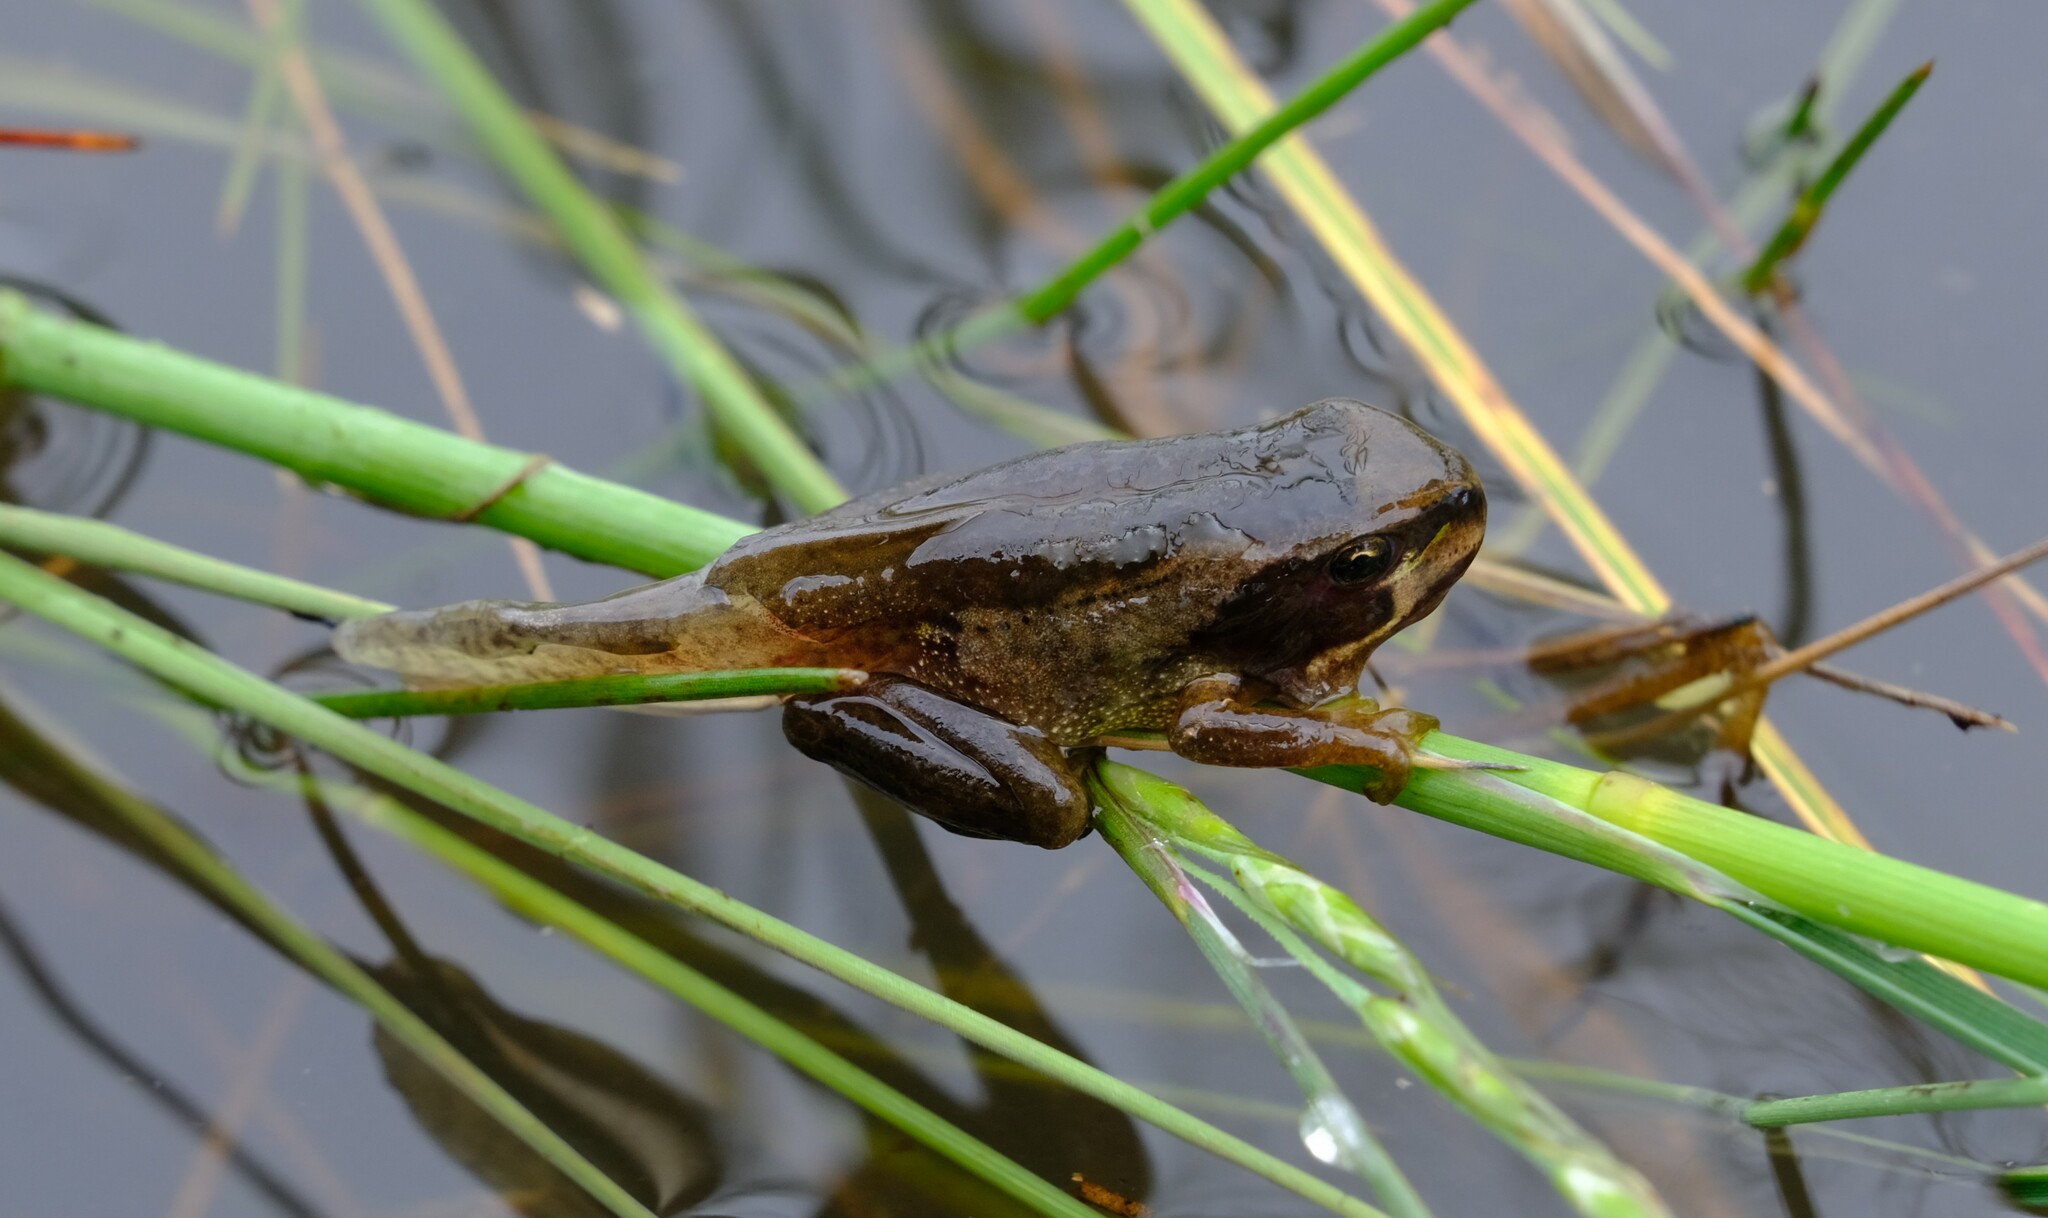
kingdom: Animalia
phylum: Chordata
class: Amphibia
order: Anura
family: Pelodryadidae
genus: Litoria
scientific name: Litoria ewingii
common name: Southern brown tree frog
